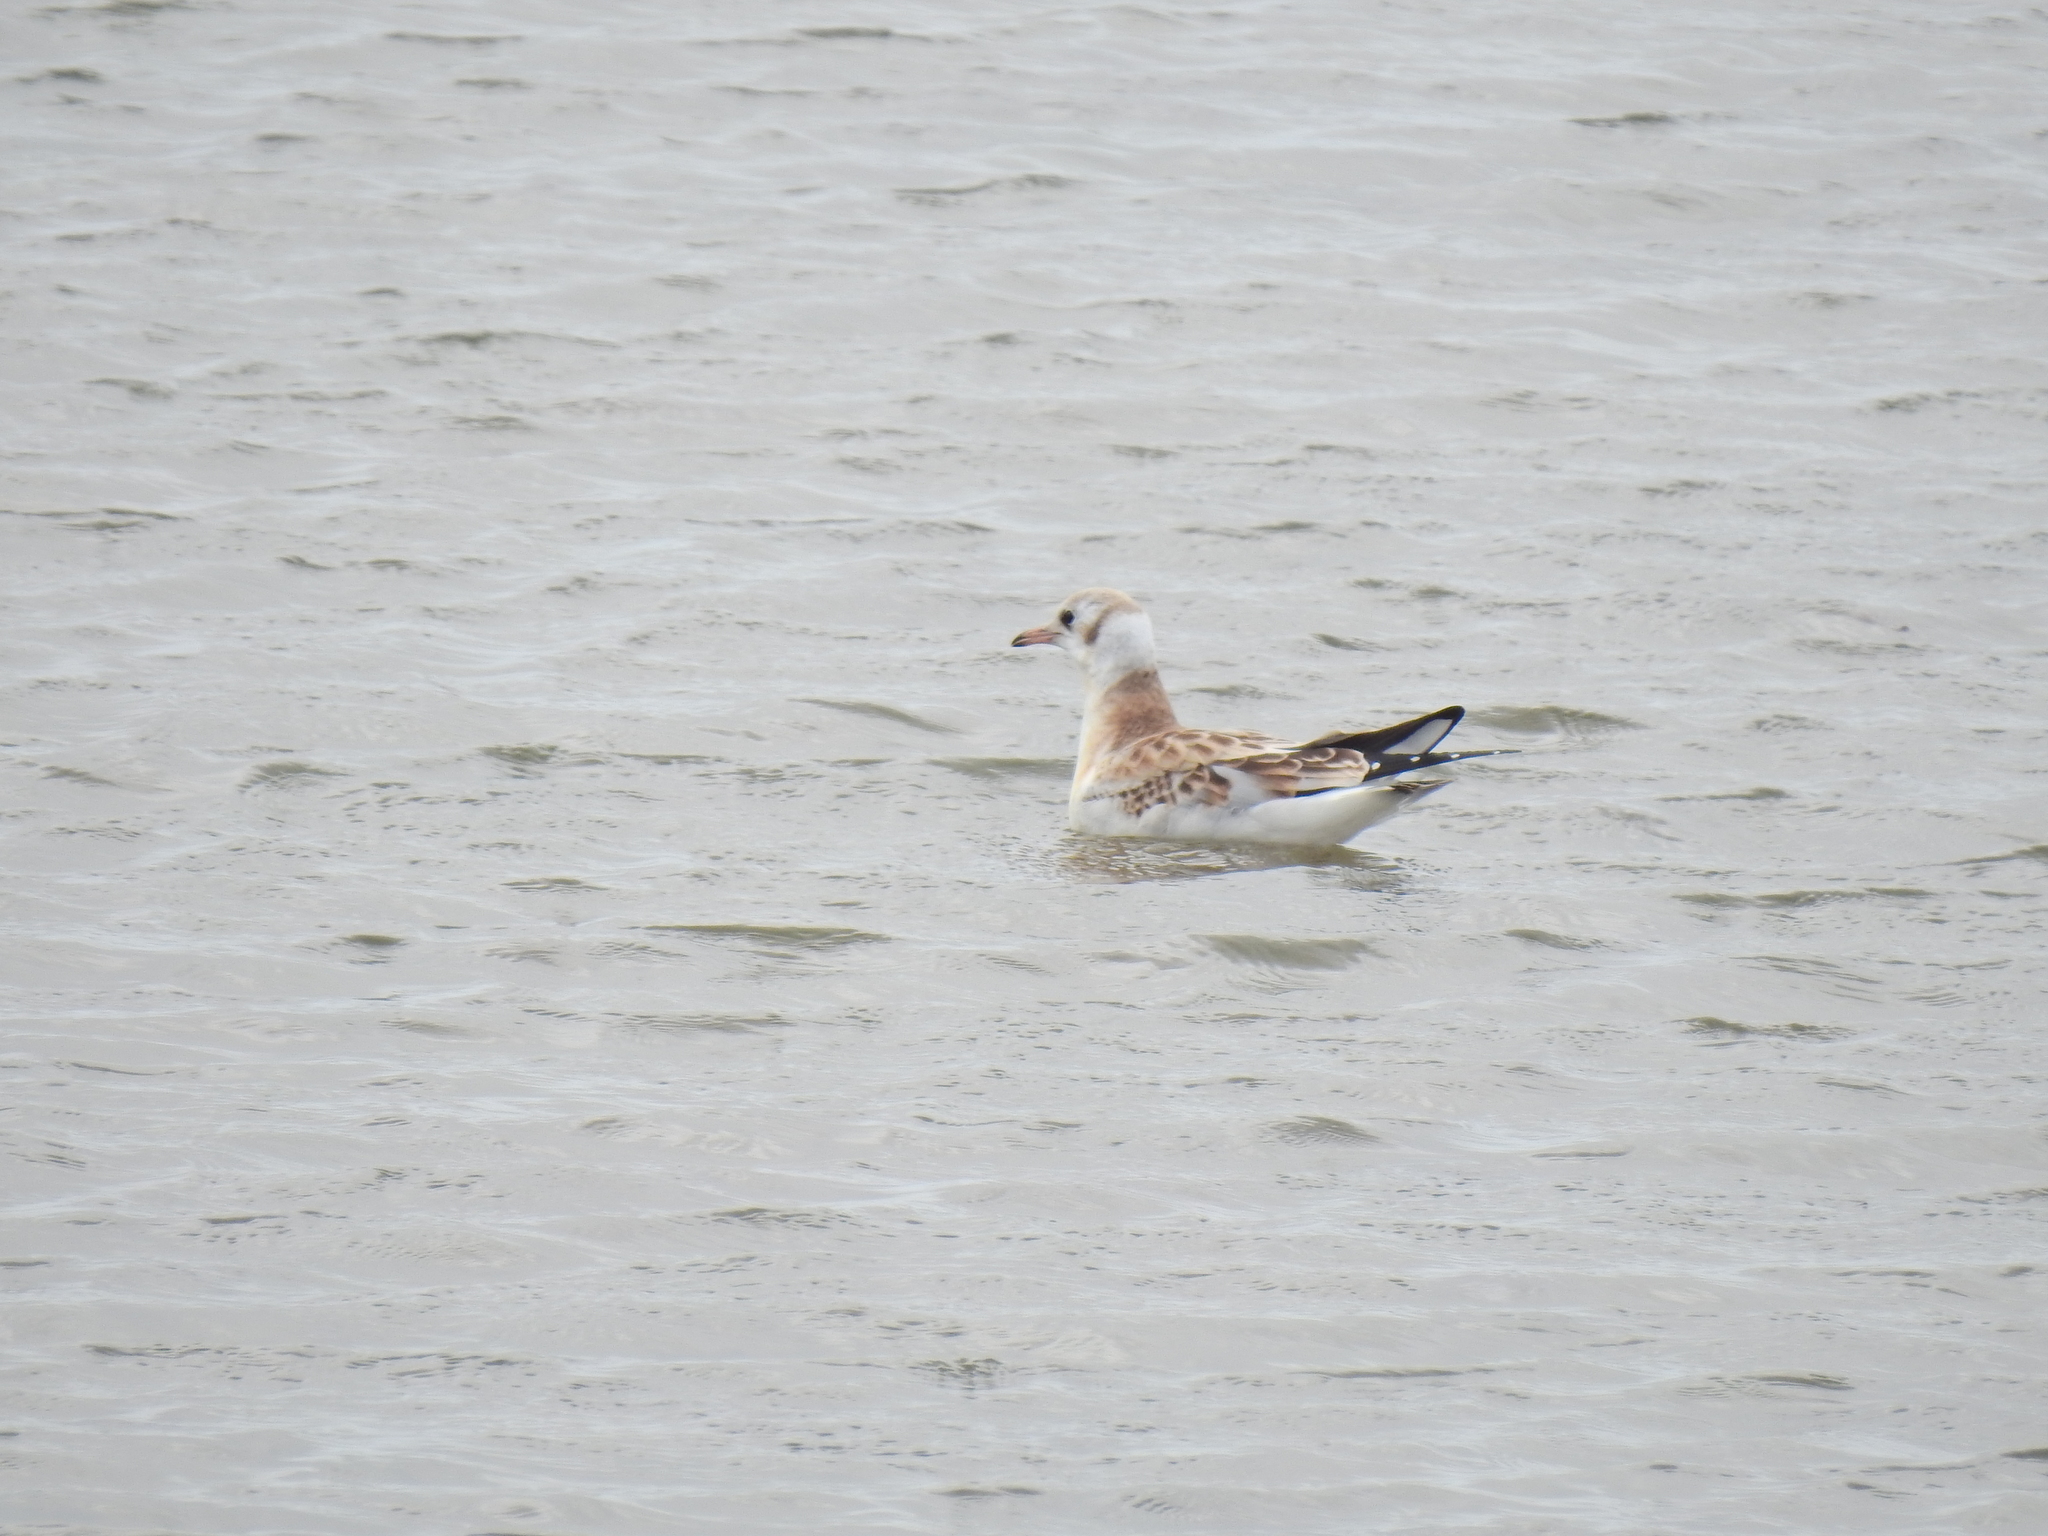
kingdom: Animalia
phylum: Chordata
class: Aves
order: Charadriiformes
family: Laridae
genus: Chroicocephalus
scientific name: Chroicocephalus ridibundus
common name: Black-headed gull
